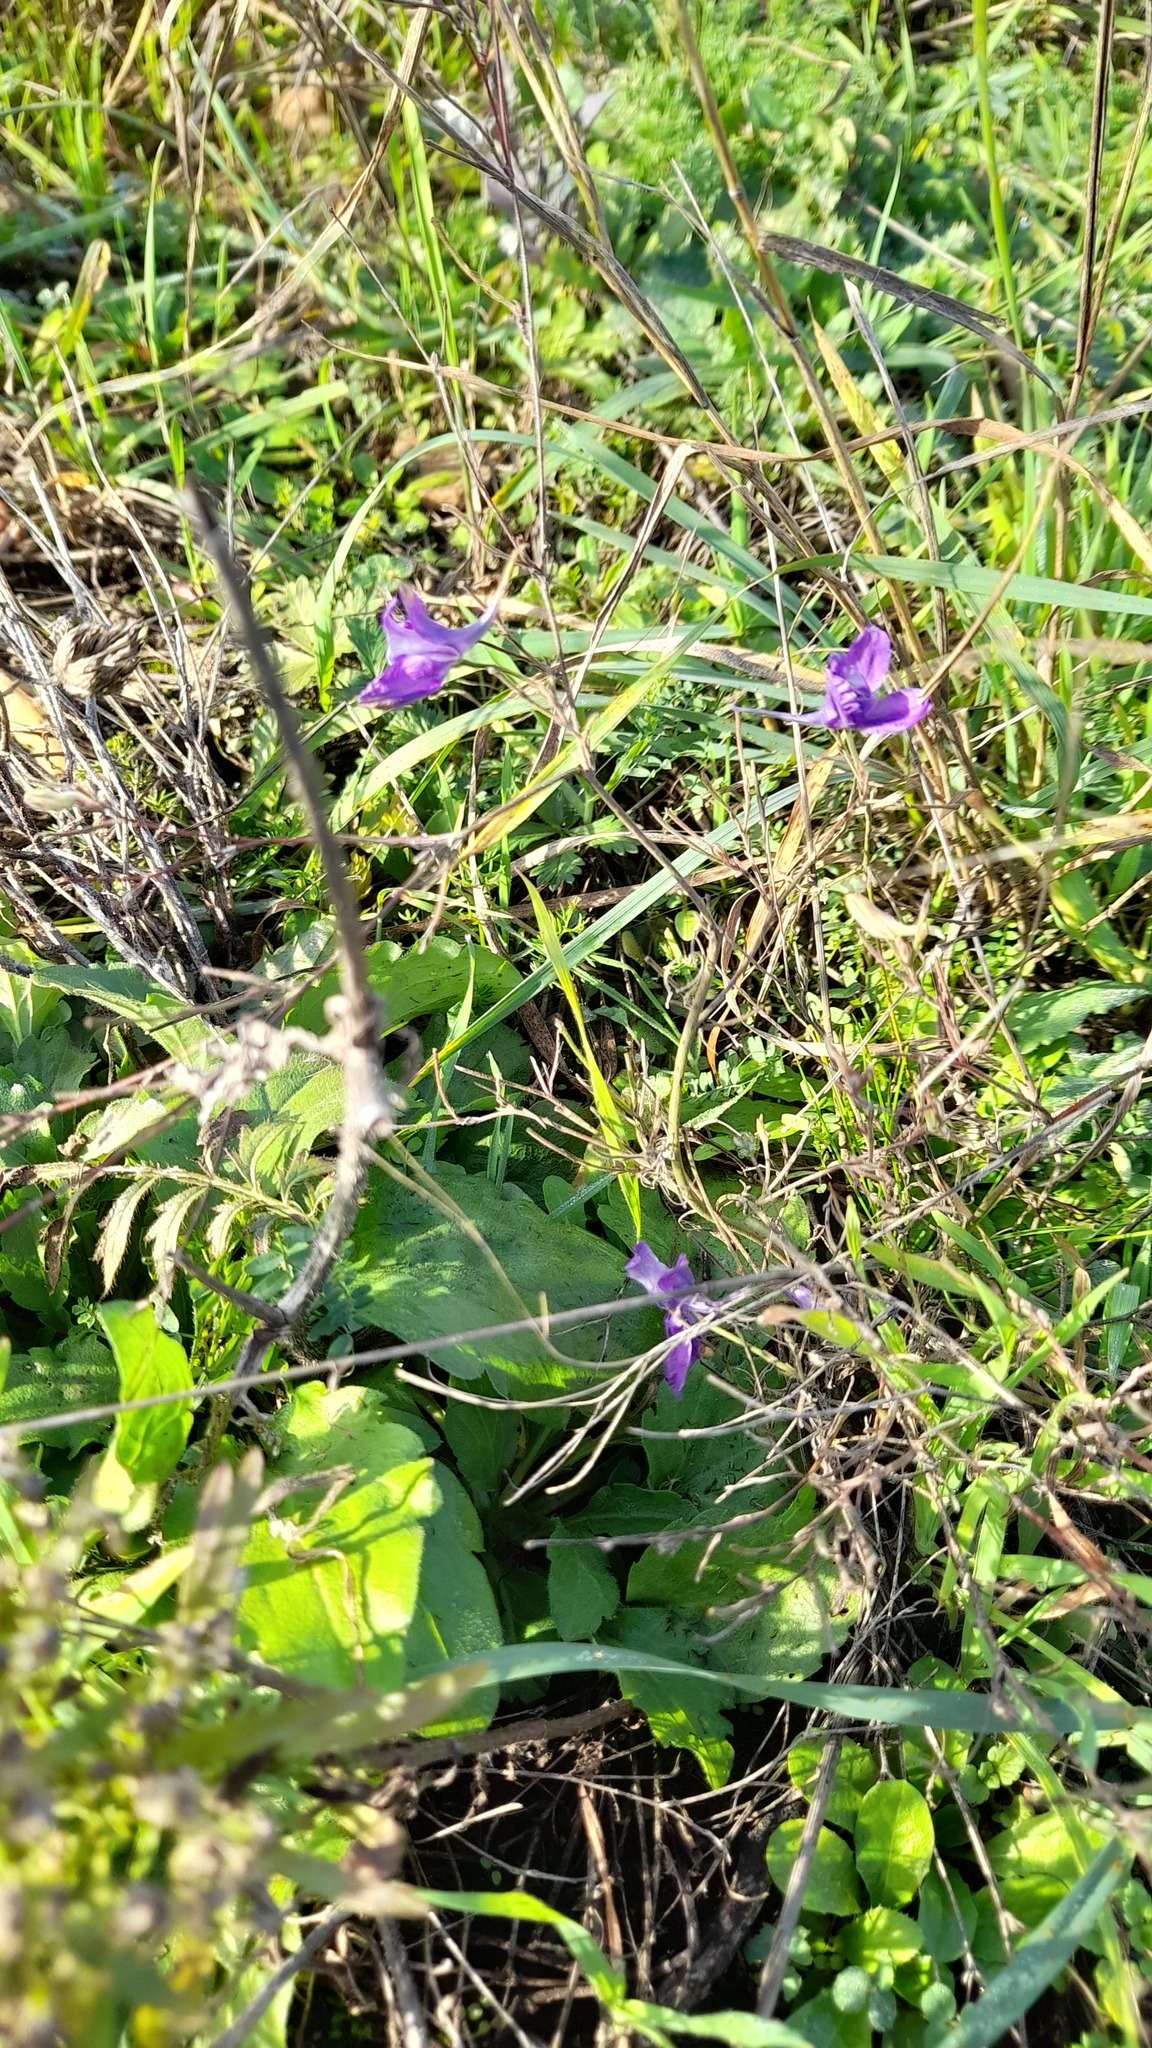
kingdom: Plantae
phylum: Tracheophyta
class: Magnoliopsida
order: Ranunculales
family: Ranunculaceae
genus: Delphinium
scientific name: Delphinium consolida
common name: Branching larkspur
